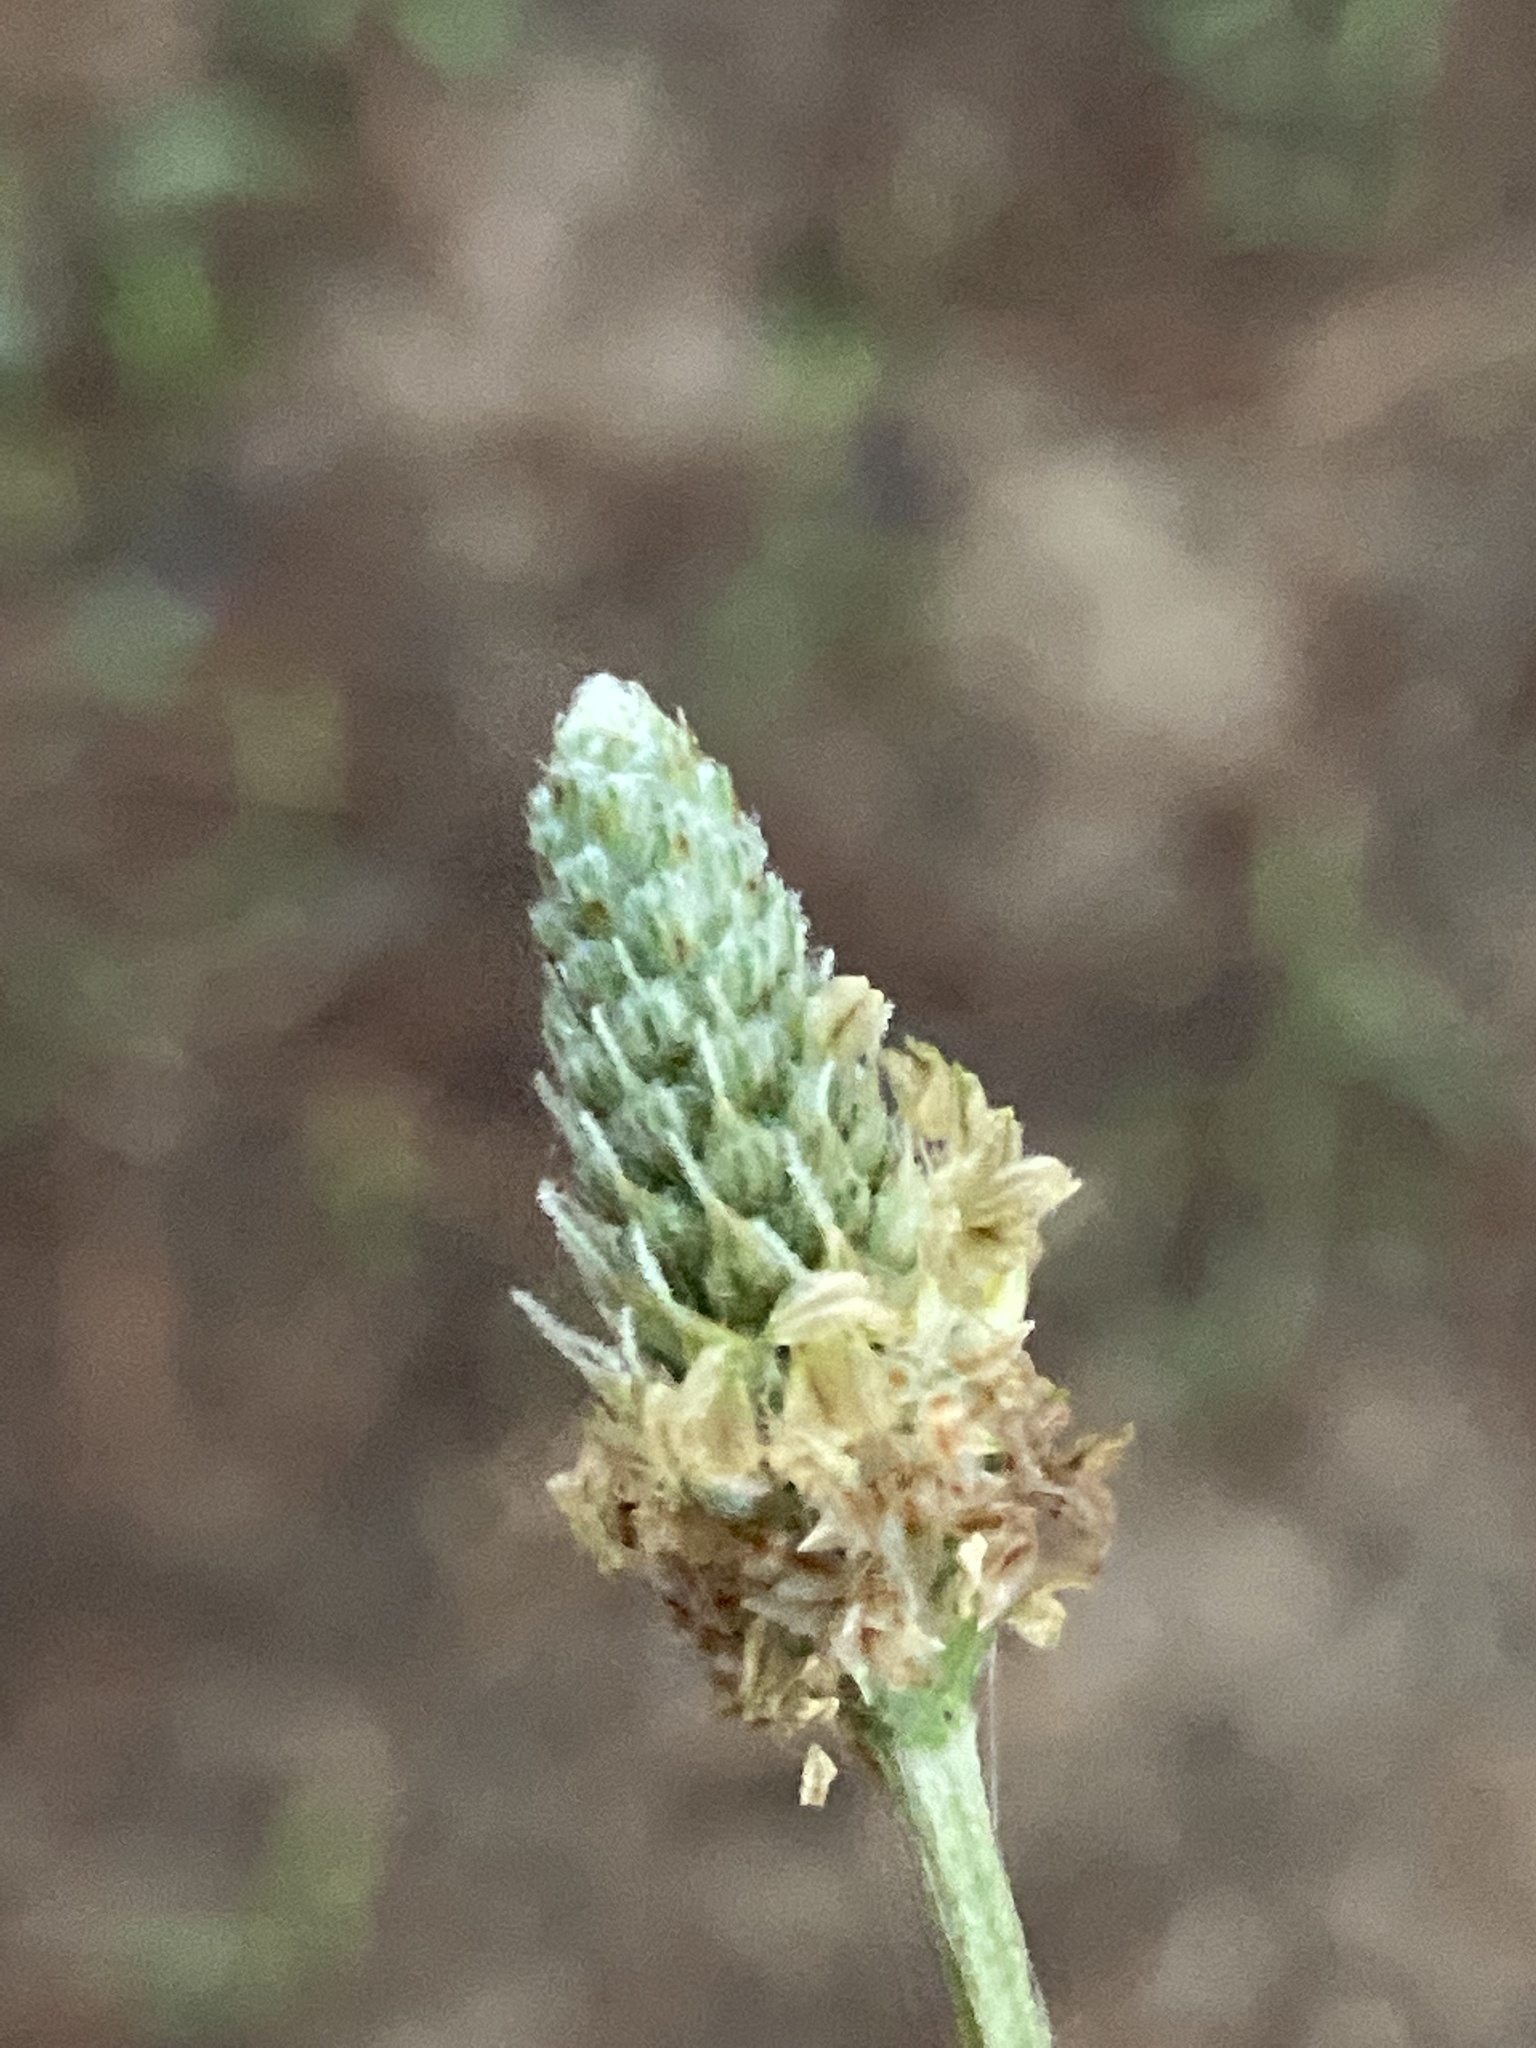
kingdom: Plantae
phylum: Tracheophyta
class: Magnoliopsida
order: Lamiales
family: Plantaginaceae
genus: Plantago
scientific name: Plantago lanceolata
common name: Ribwort plantain
